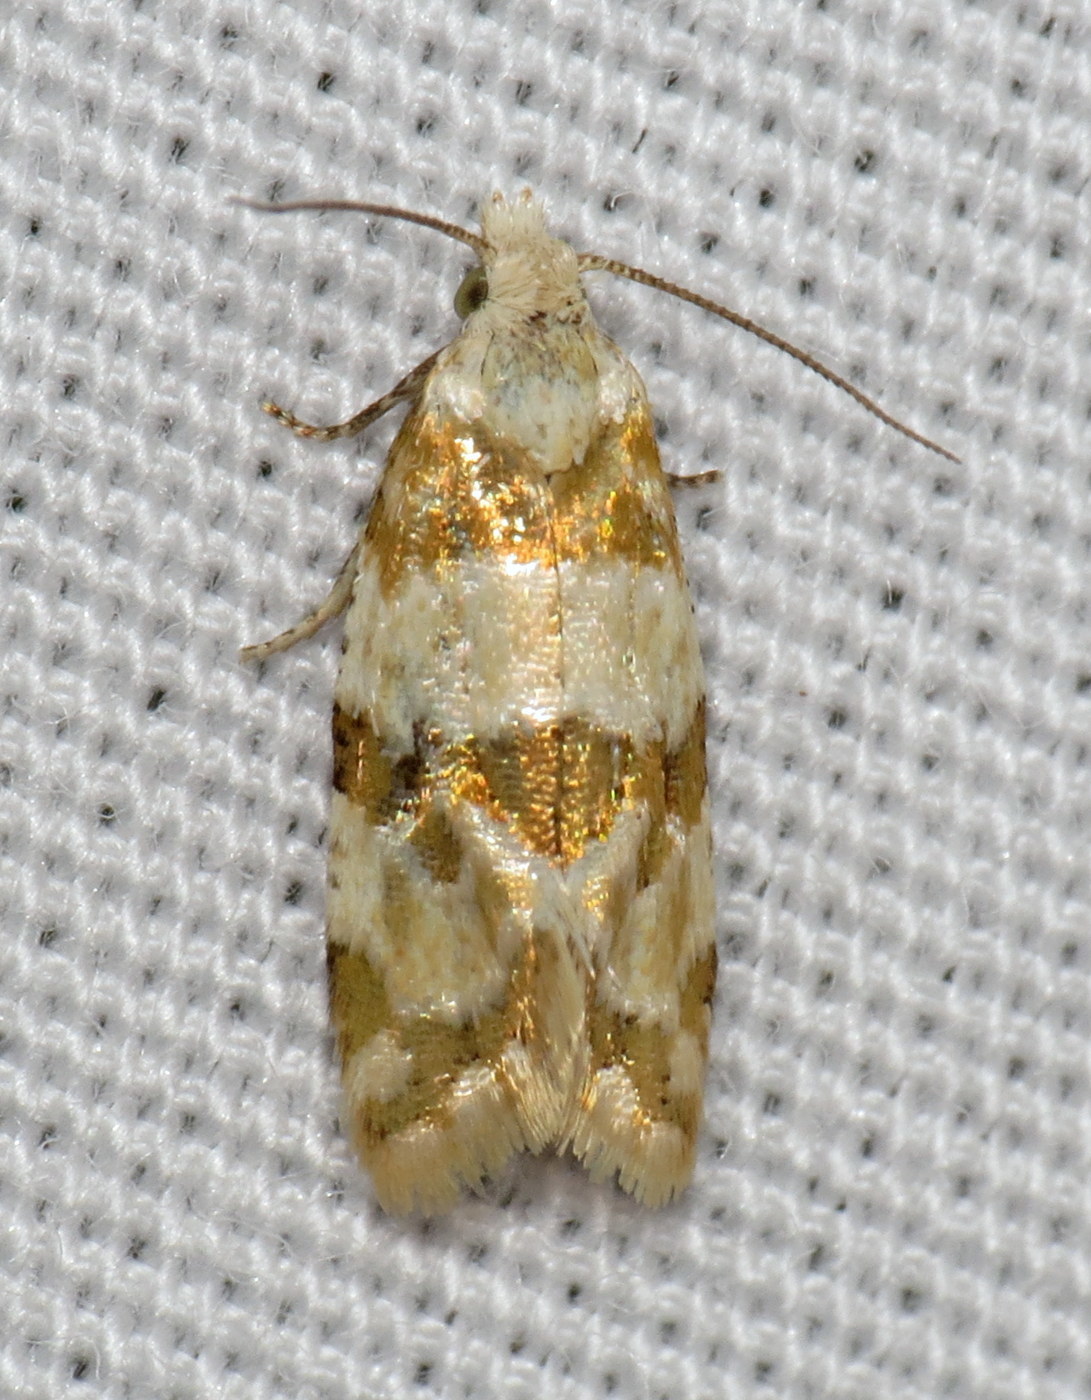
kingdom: Animalia
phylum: Arthropoda
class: Insecta
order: Lepidoptera
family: Tortricidae
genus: Aethes
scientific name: Aethes argentilimitana
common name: Silver-bordered aethes
